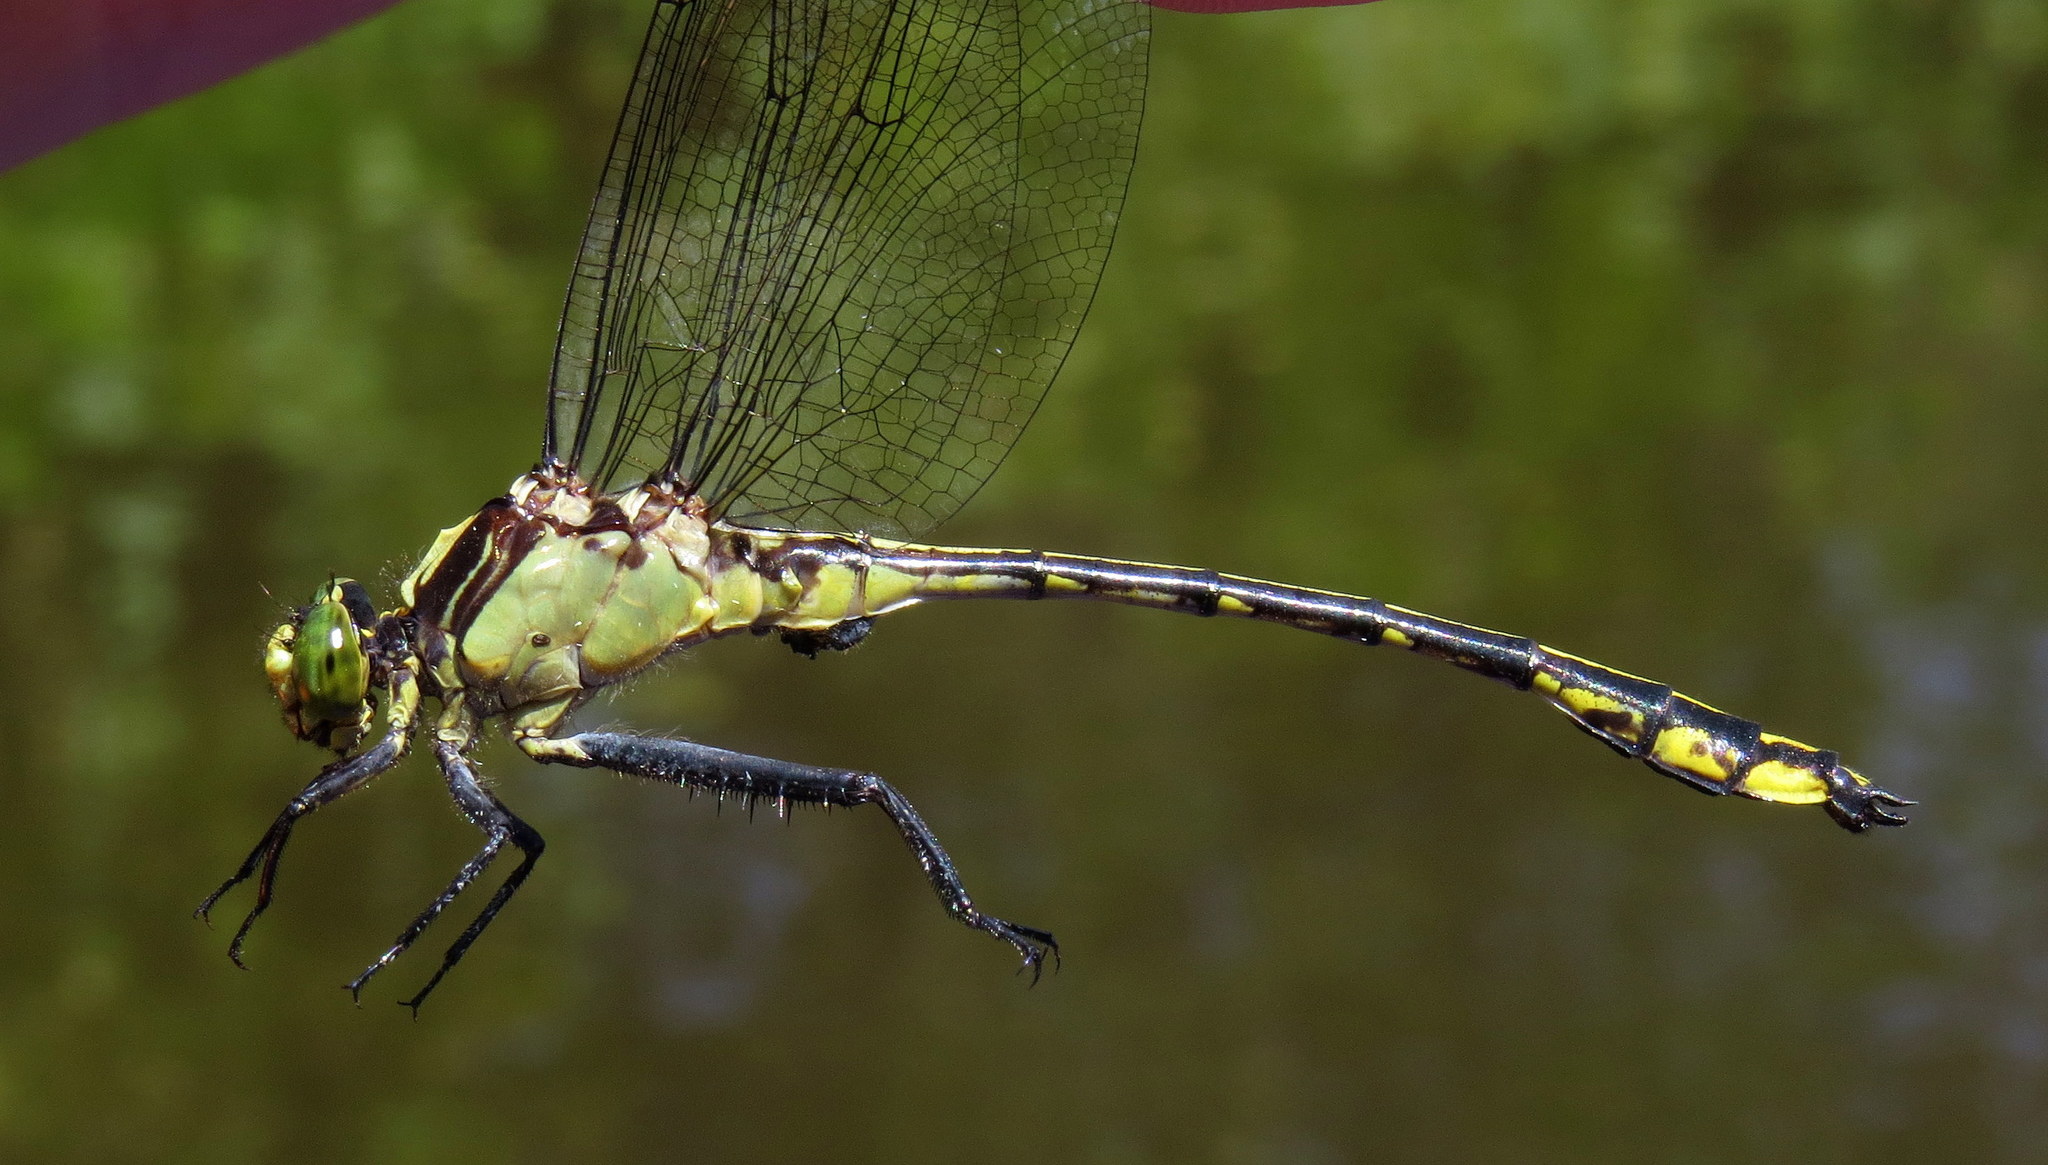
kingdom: Animalia
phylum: Arthropoda
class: Insecta
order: Odonata
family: Gomphidae
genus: Dromogomphus
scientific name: Dromogomphus spinosus
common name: Black-shouldered spinyleg
